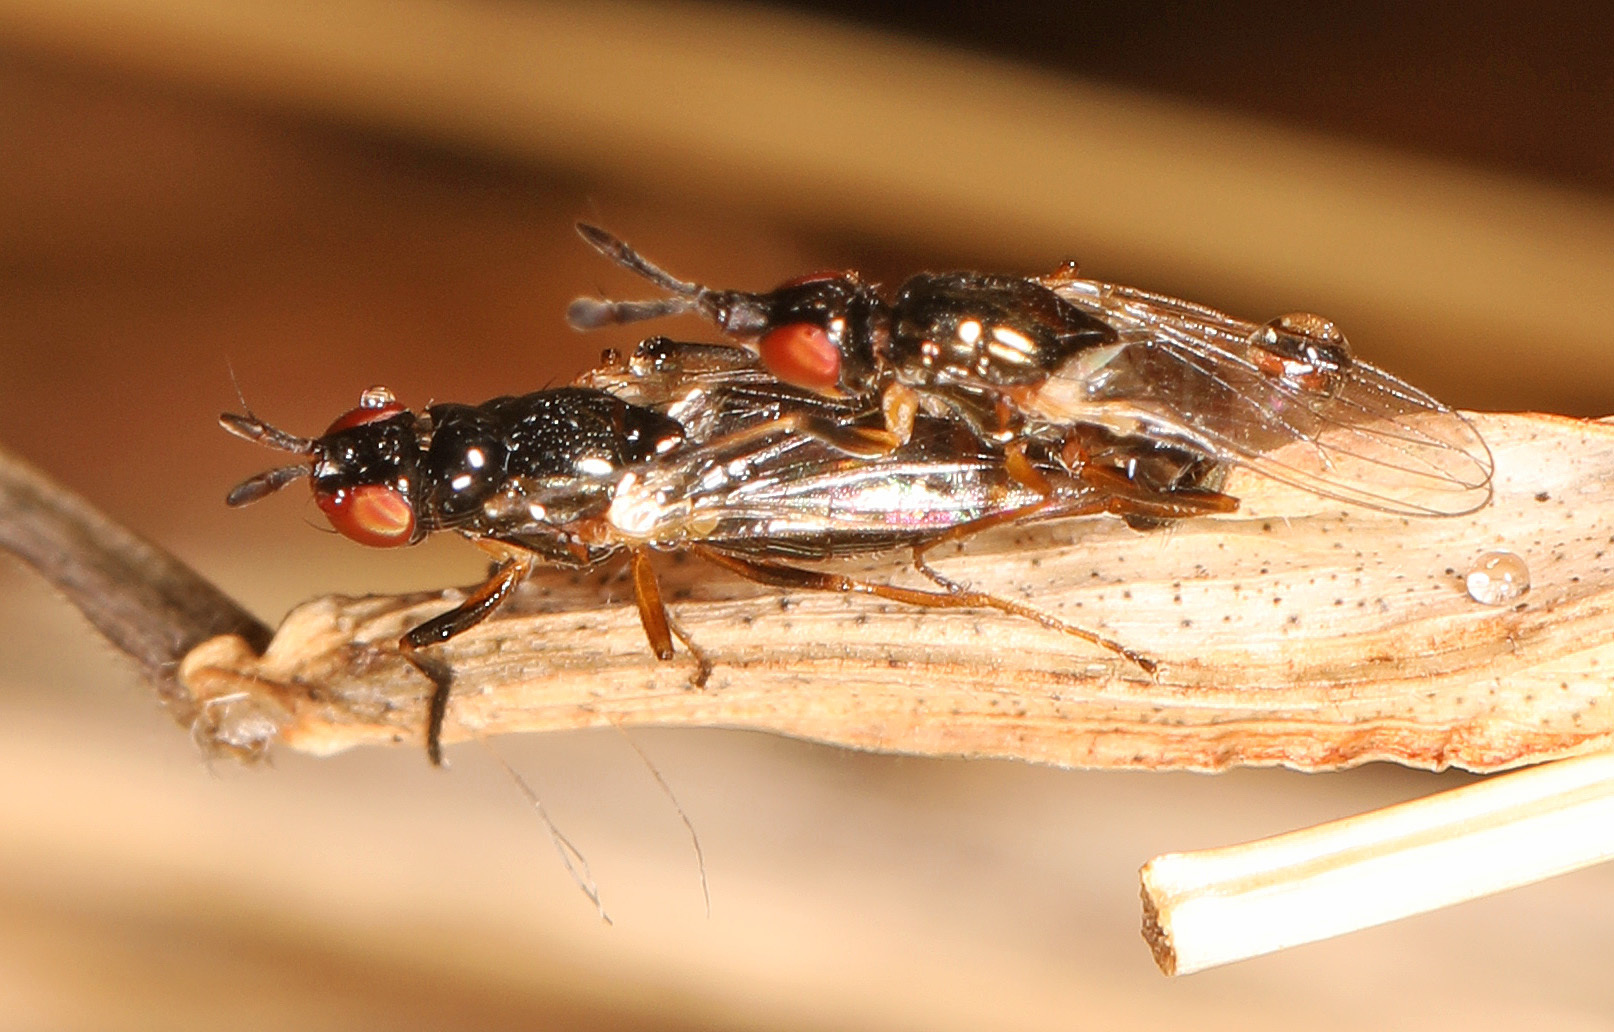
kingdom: Animalia
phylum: Arthropoda
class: Insecta
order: Diptera
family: Piophilidae
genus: Prochyliza
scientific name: Prochyliza xanthostoma
